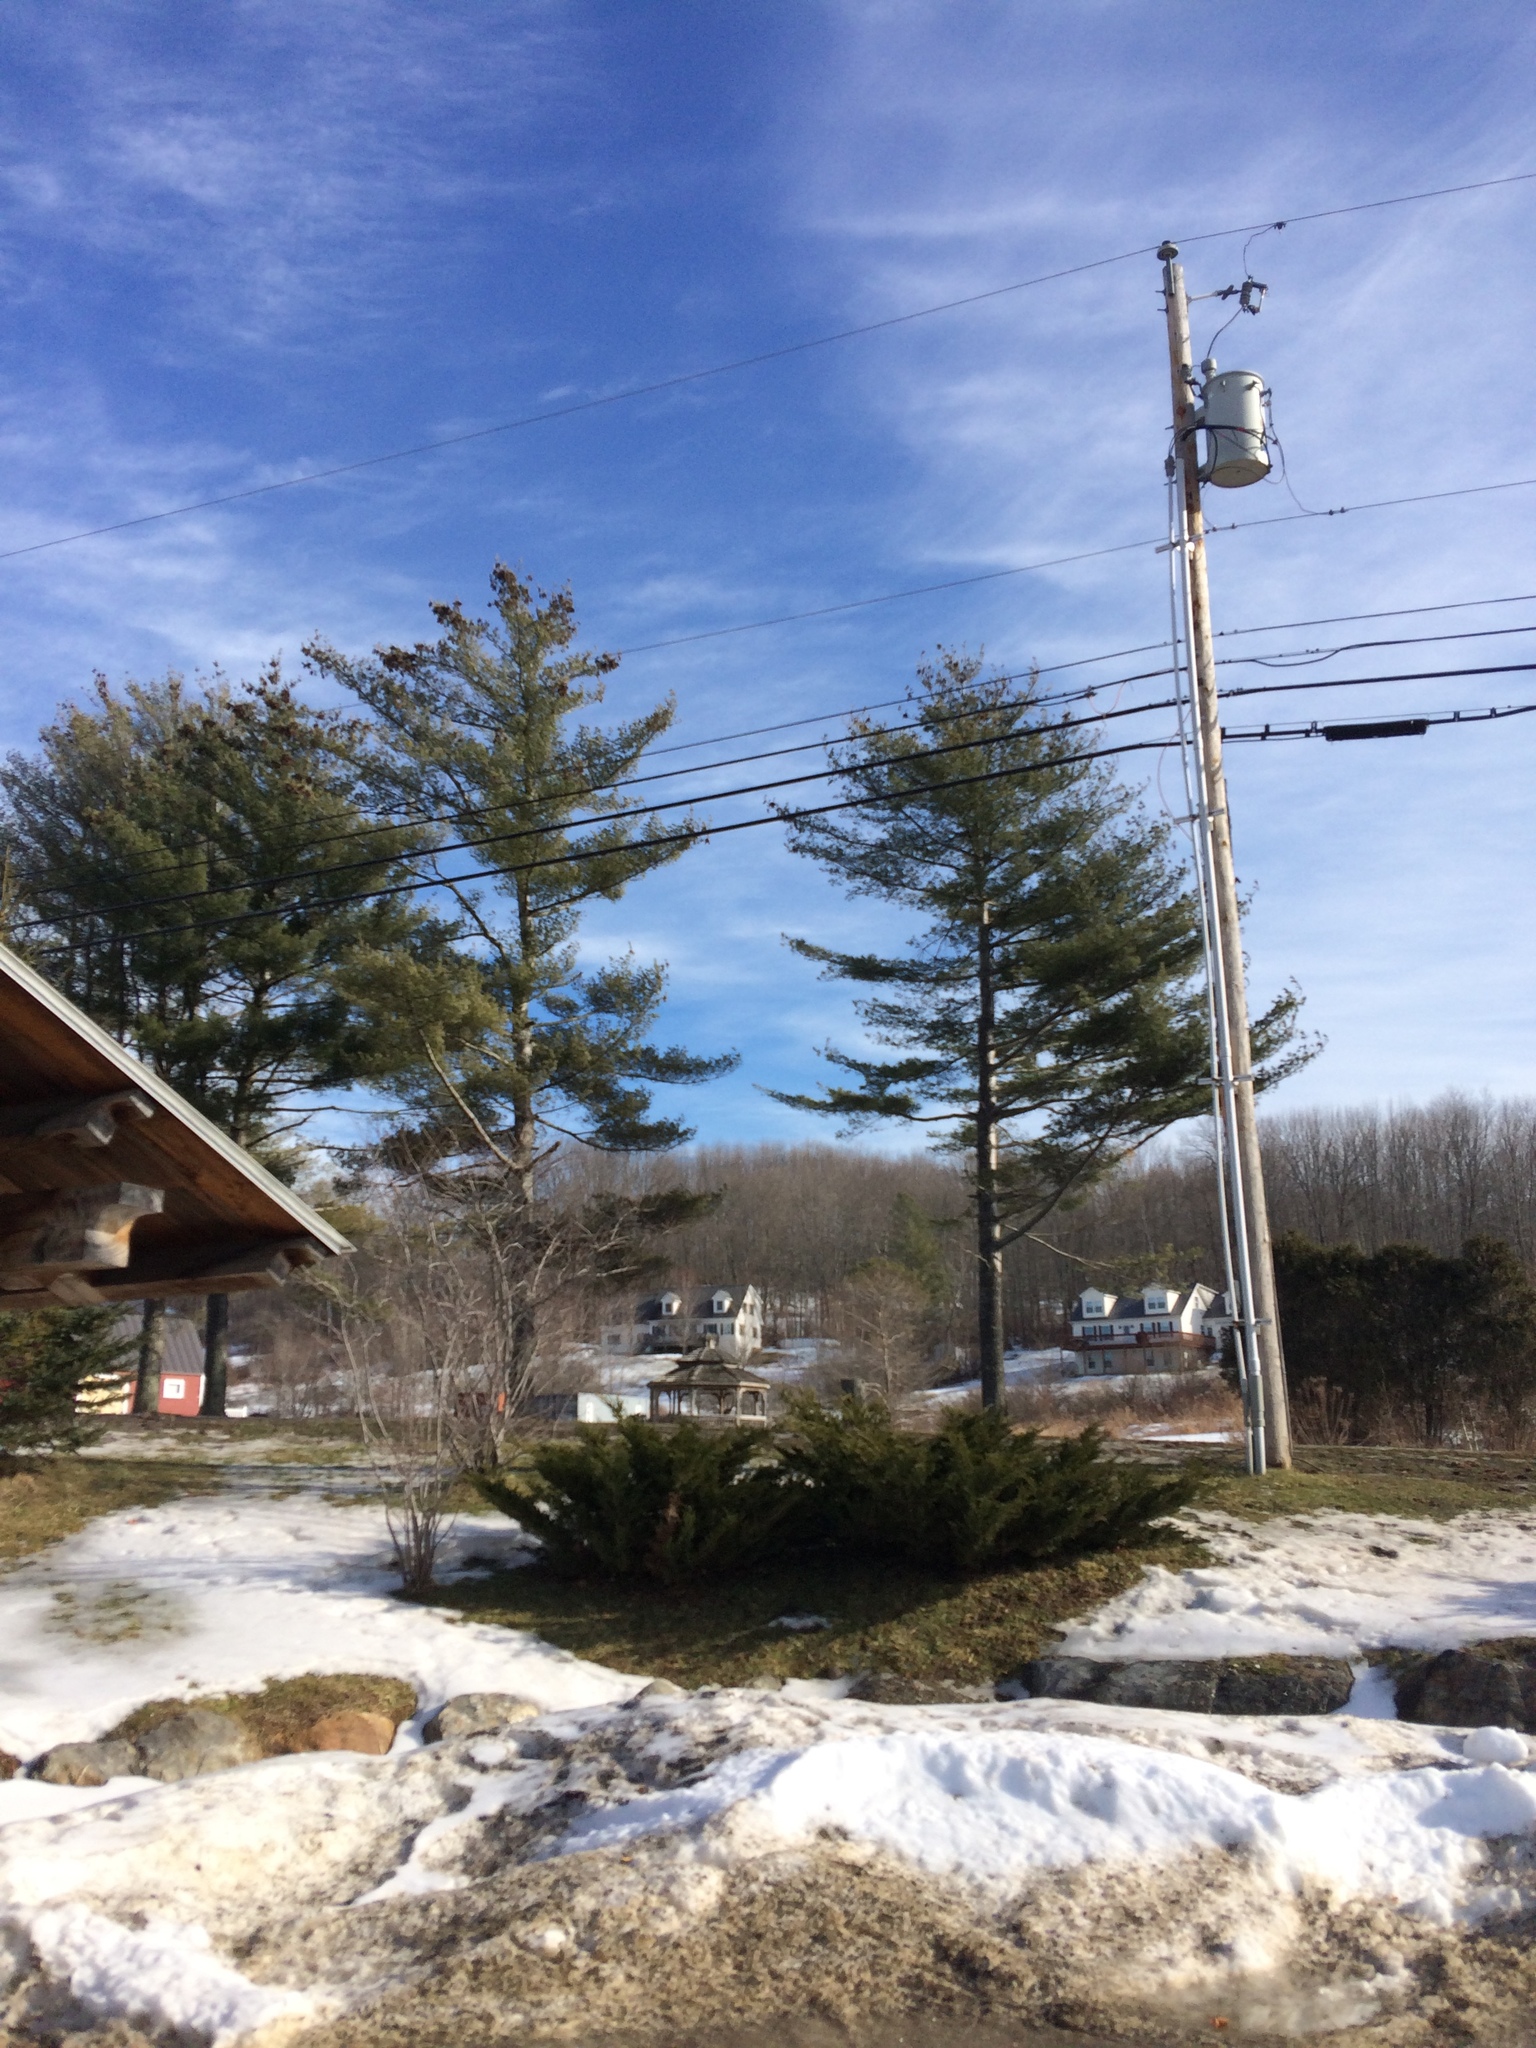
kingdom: Plantae
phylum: Tracheophyta
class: Pinopsida
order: Pinales
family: Pinaceae
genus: Pinus
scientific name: Pinus strobus
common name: Weymouth pine
